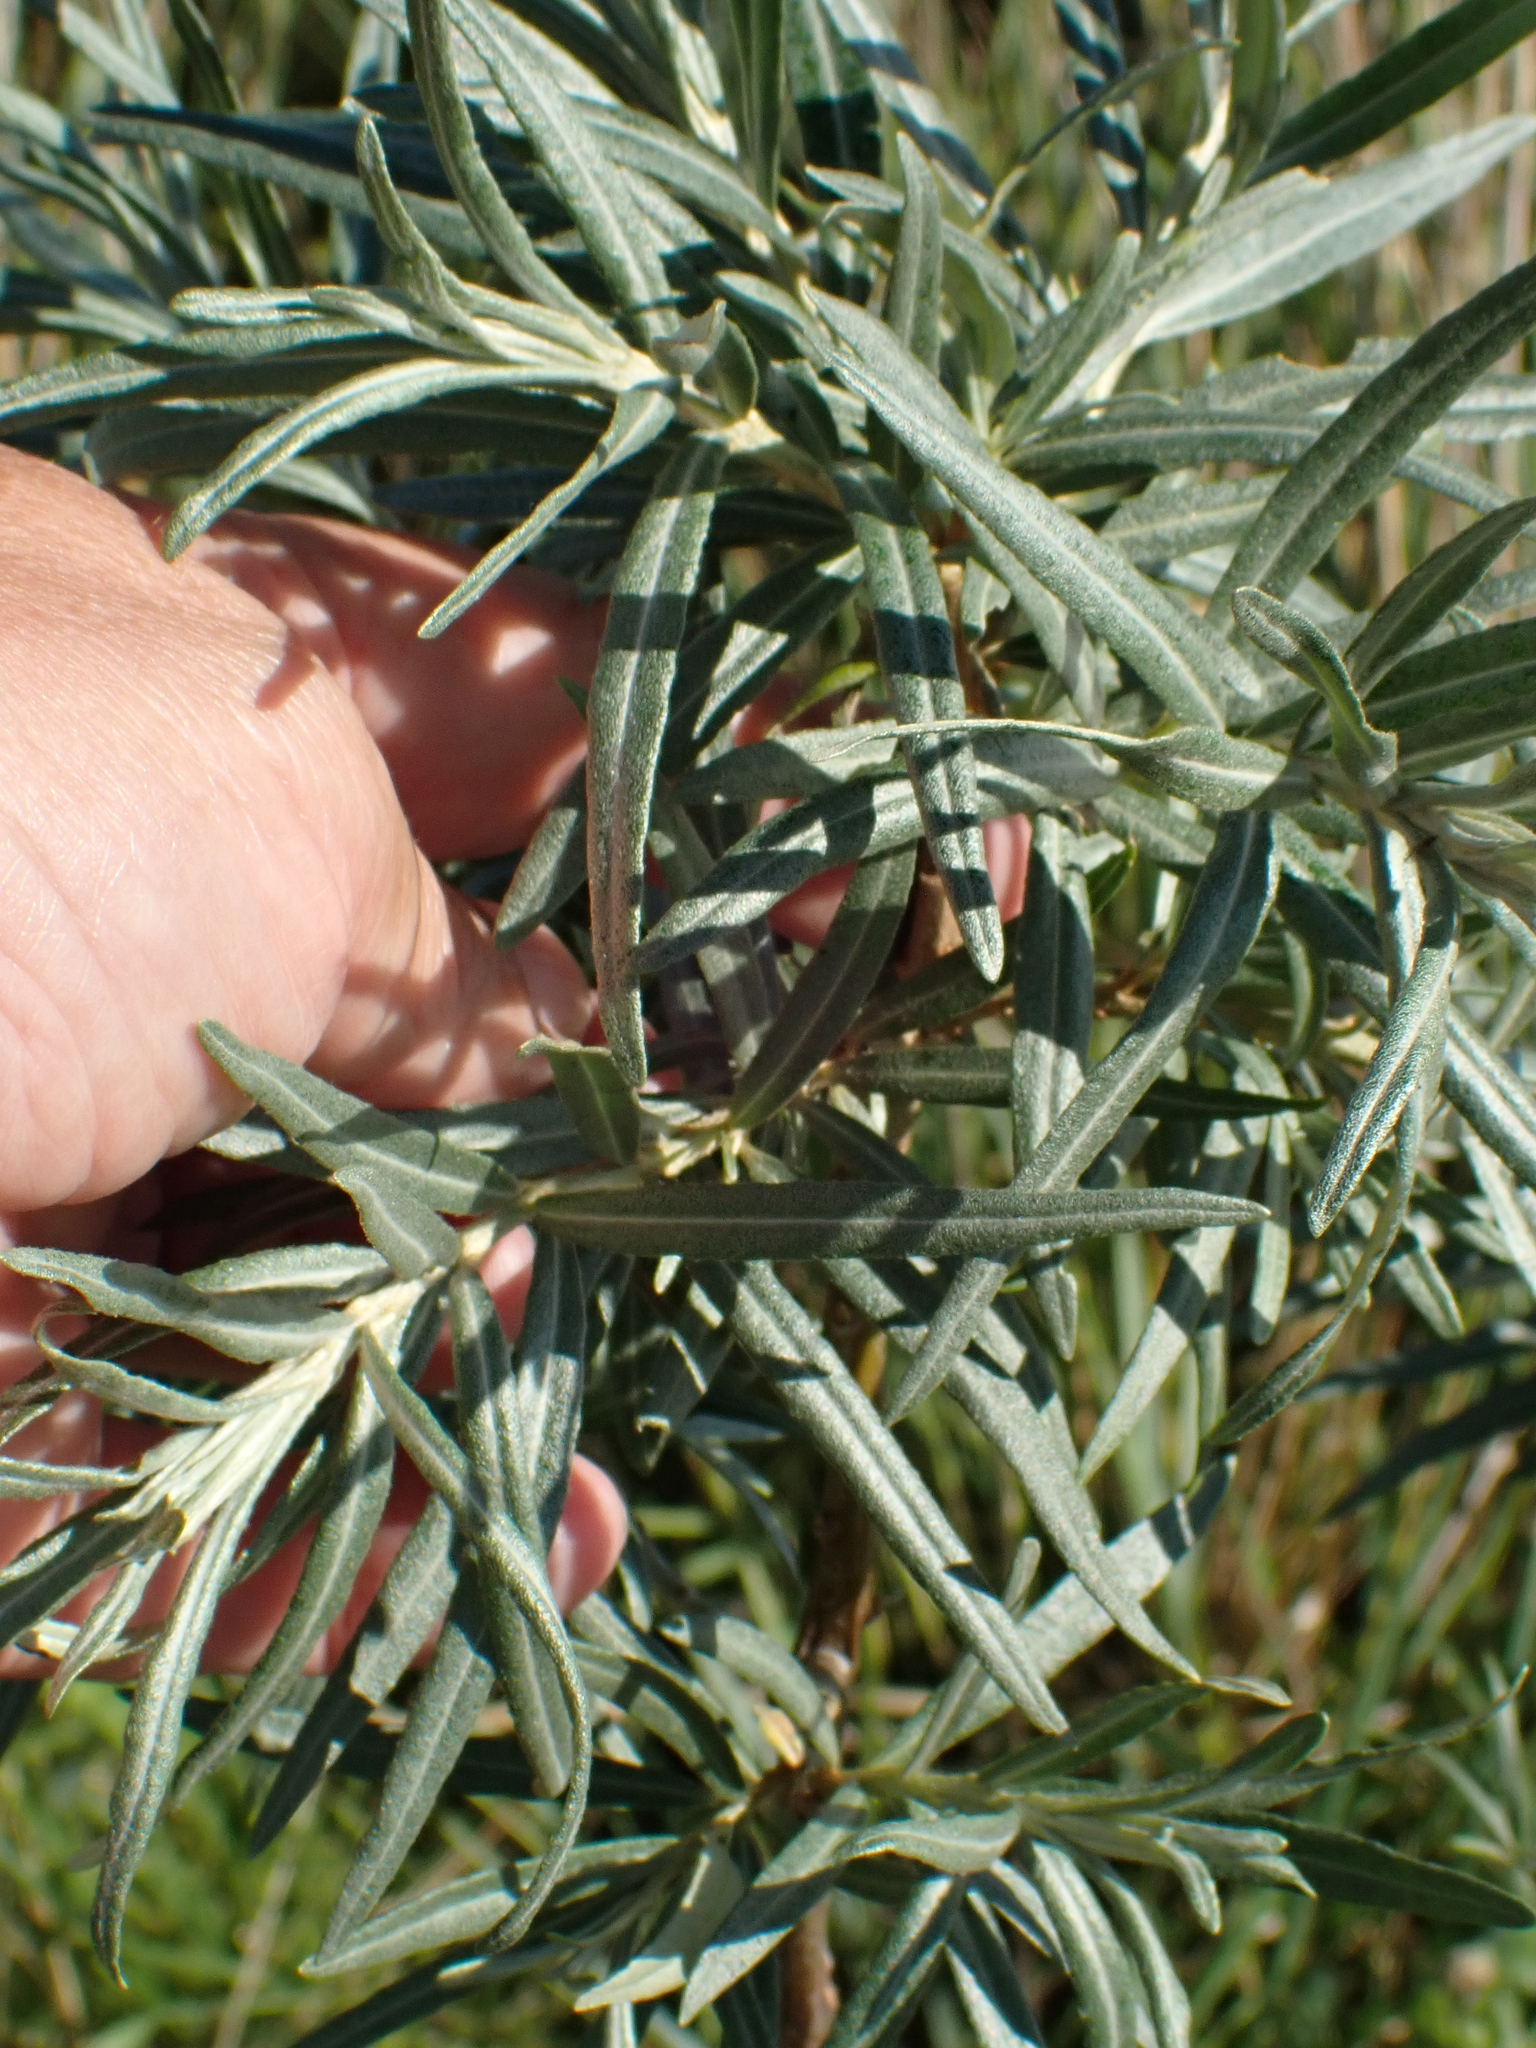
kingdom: Plantae
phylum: Tracheophyta
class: Magnoliopsida
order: Rosales
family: Elaeagnaceae
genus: Hippophae
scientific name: Hippophae rhamnoides
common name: Sea-buckthorn
